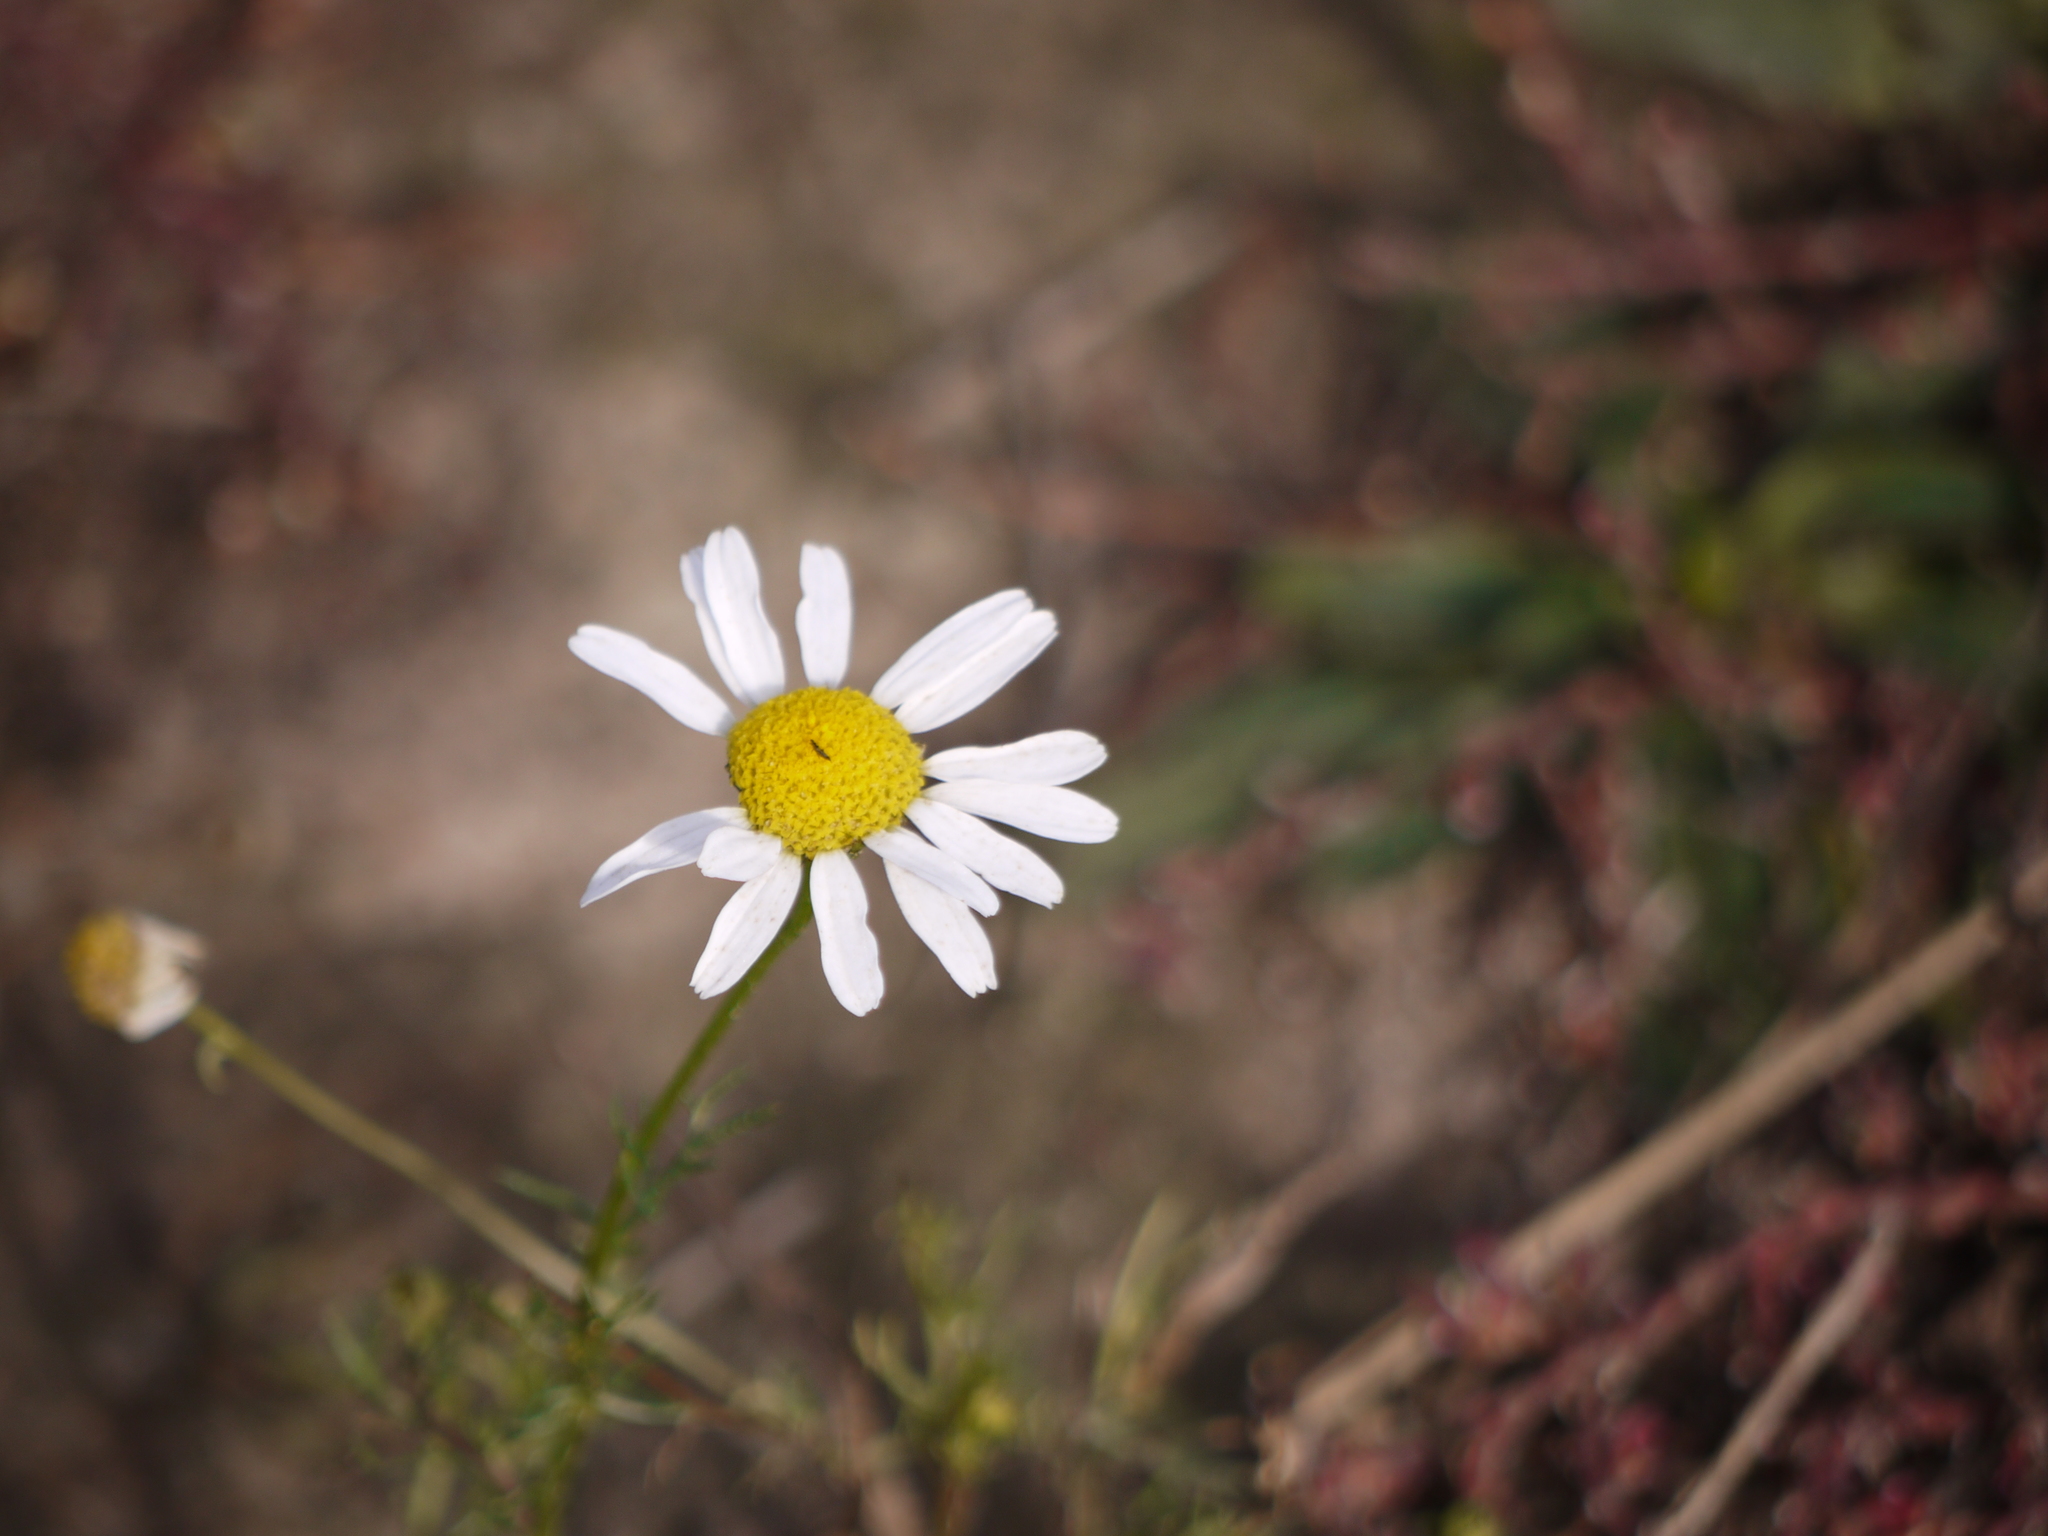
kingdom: Plantae
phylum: Tracheophyta
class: Magnoliopsida
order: Asterales
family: Asteraceae
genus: Tripleurospermum
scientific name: Tripleurospermum inodorum
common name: Scentless mayweed
